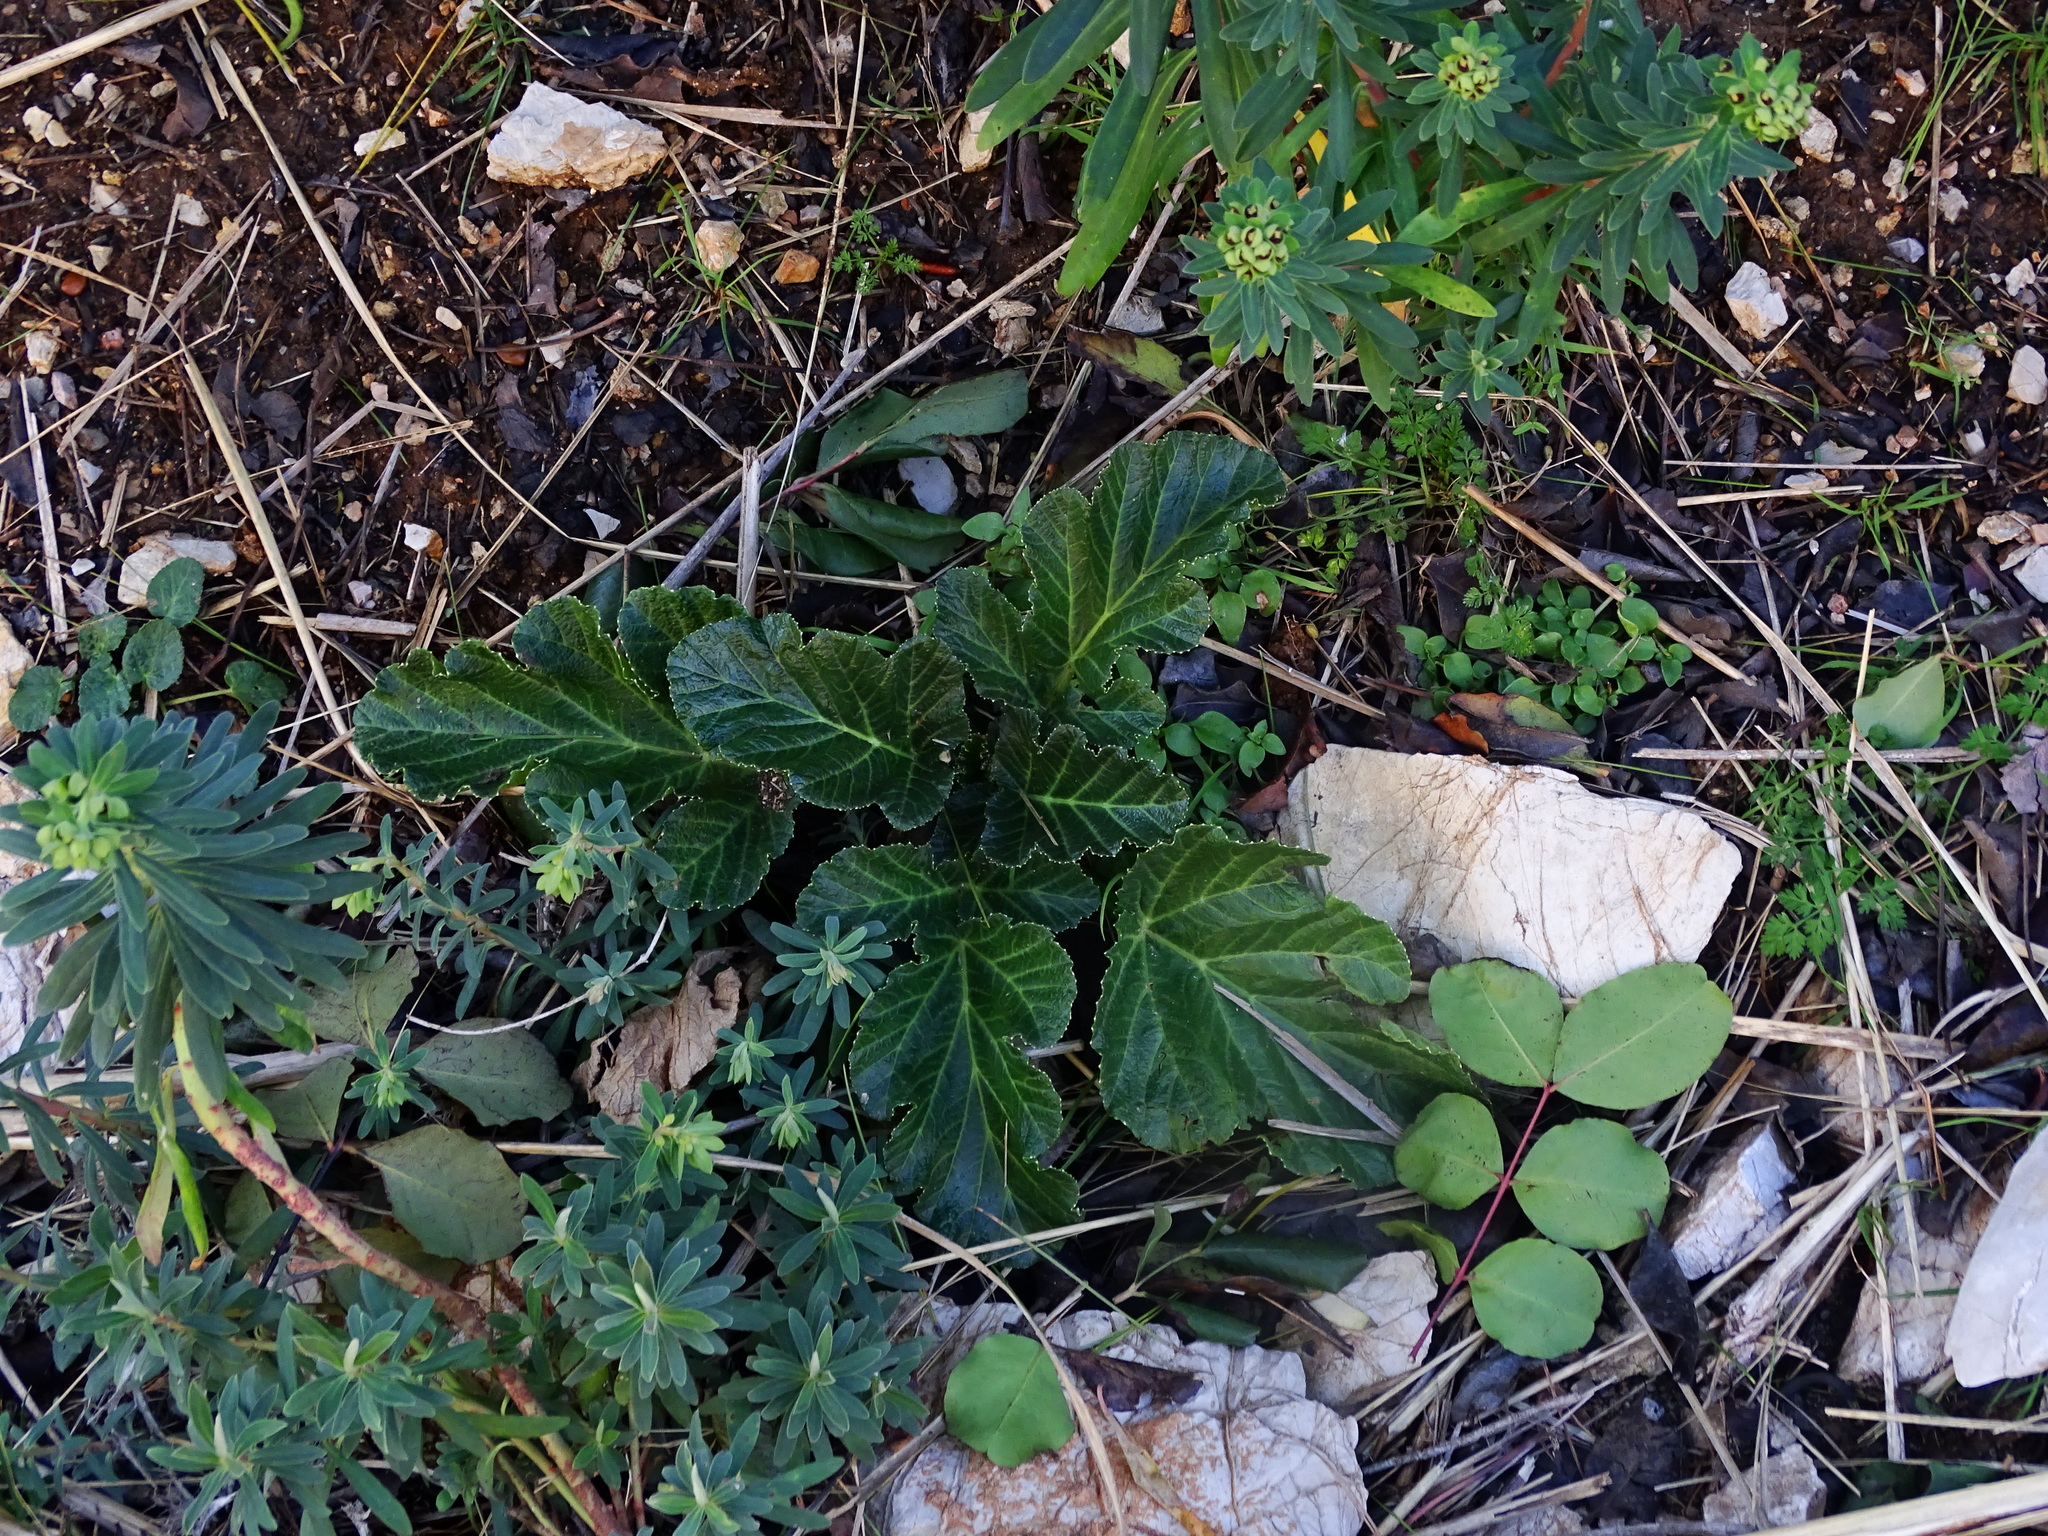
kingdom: Plantae
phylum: Tracheophyta
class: Magnoliopsida
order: Apiales
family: Apiaceae
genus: Pastinaca
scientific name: Pastinaca lucida
